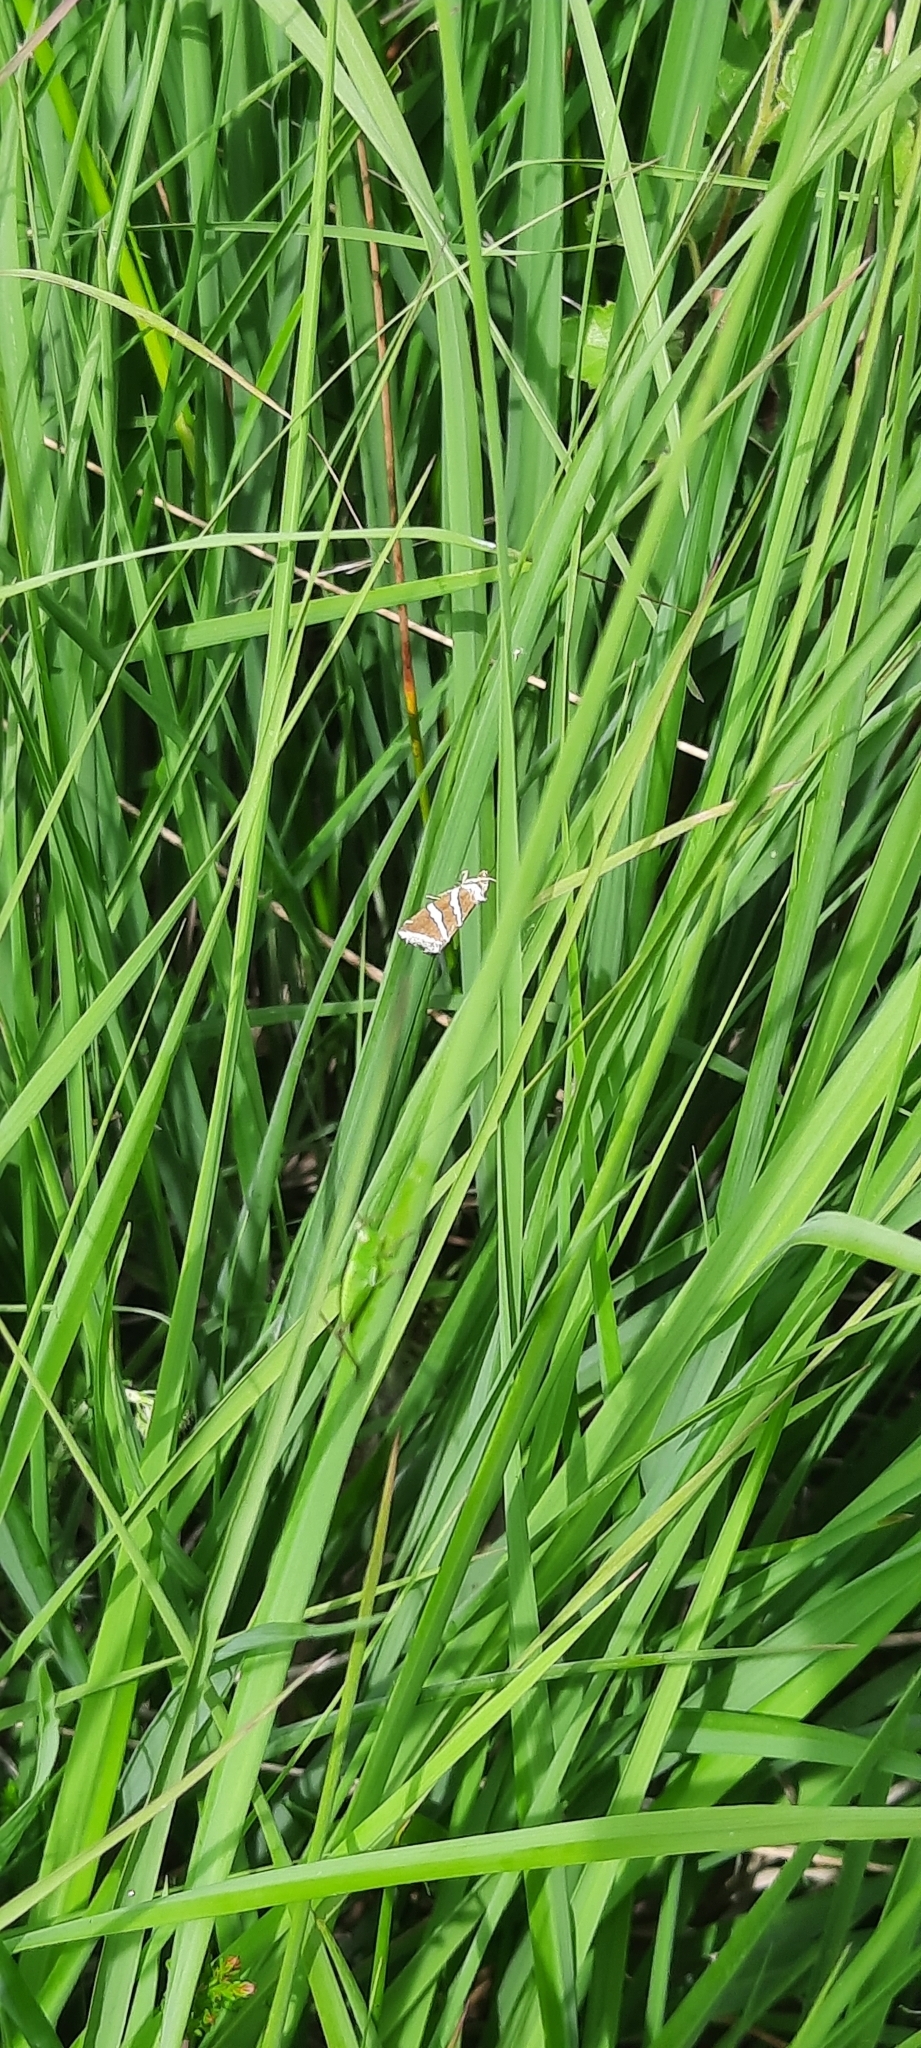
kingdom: Animalia
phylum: Arthropoda
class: Insecta
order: Lepidoptera
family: Noctuidae
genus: Deltote
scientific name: Deltote bankiana
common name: Silver barred
